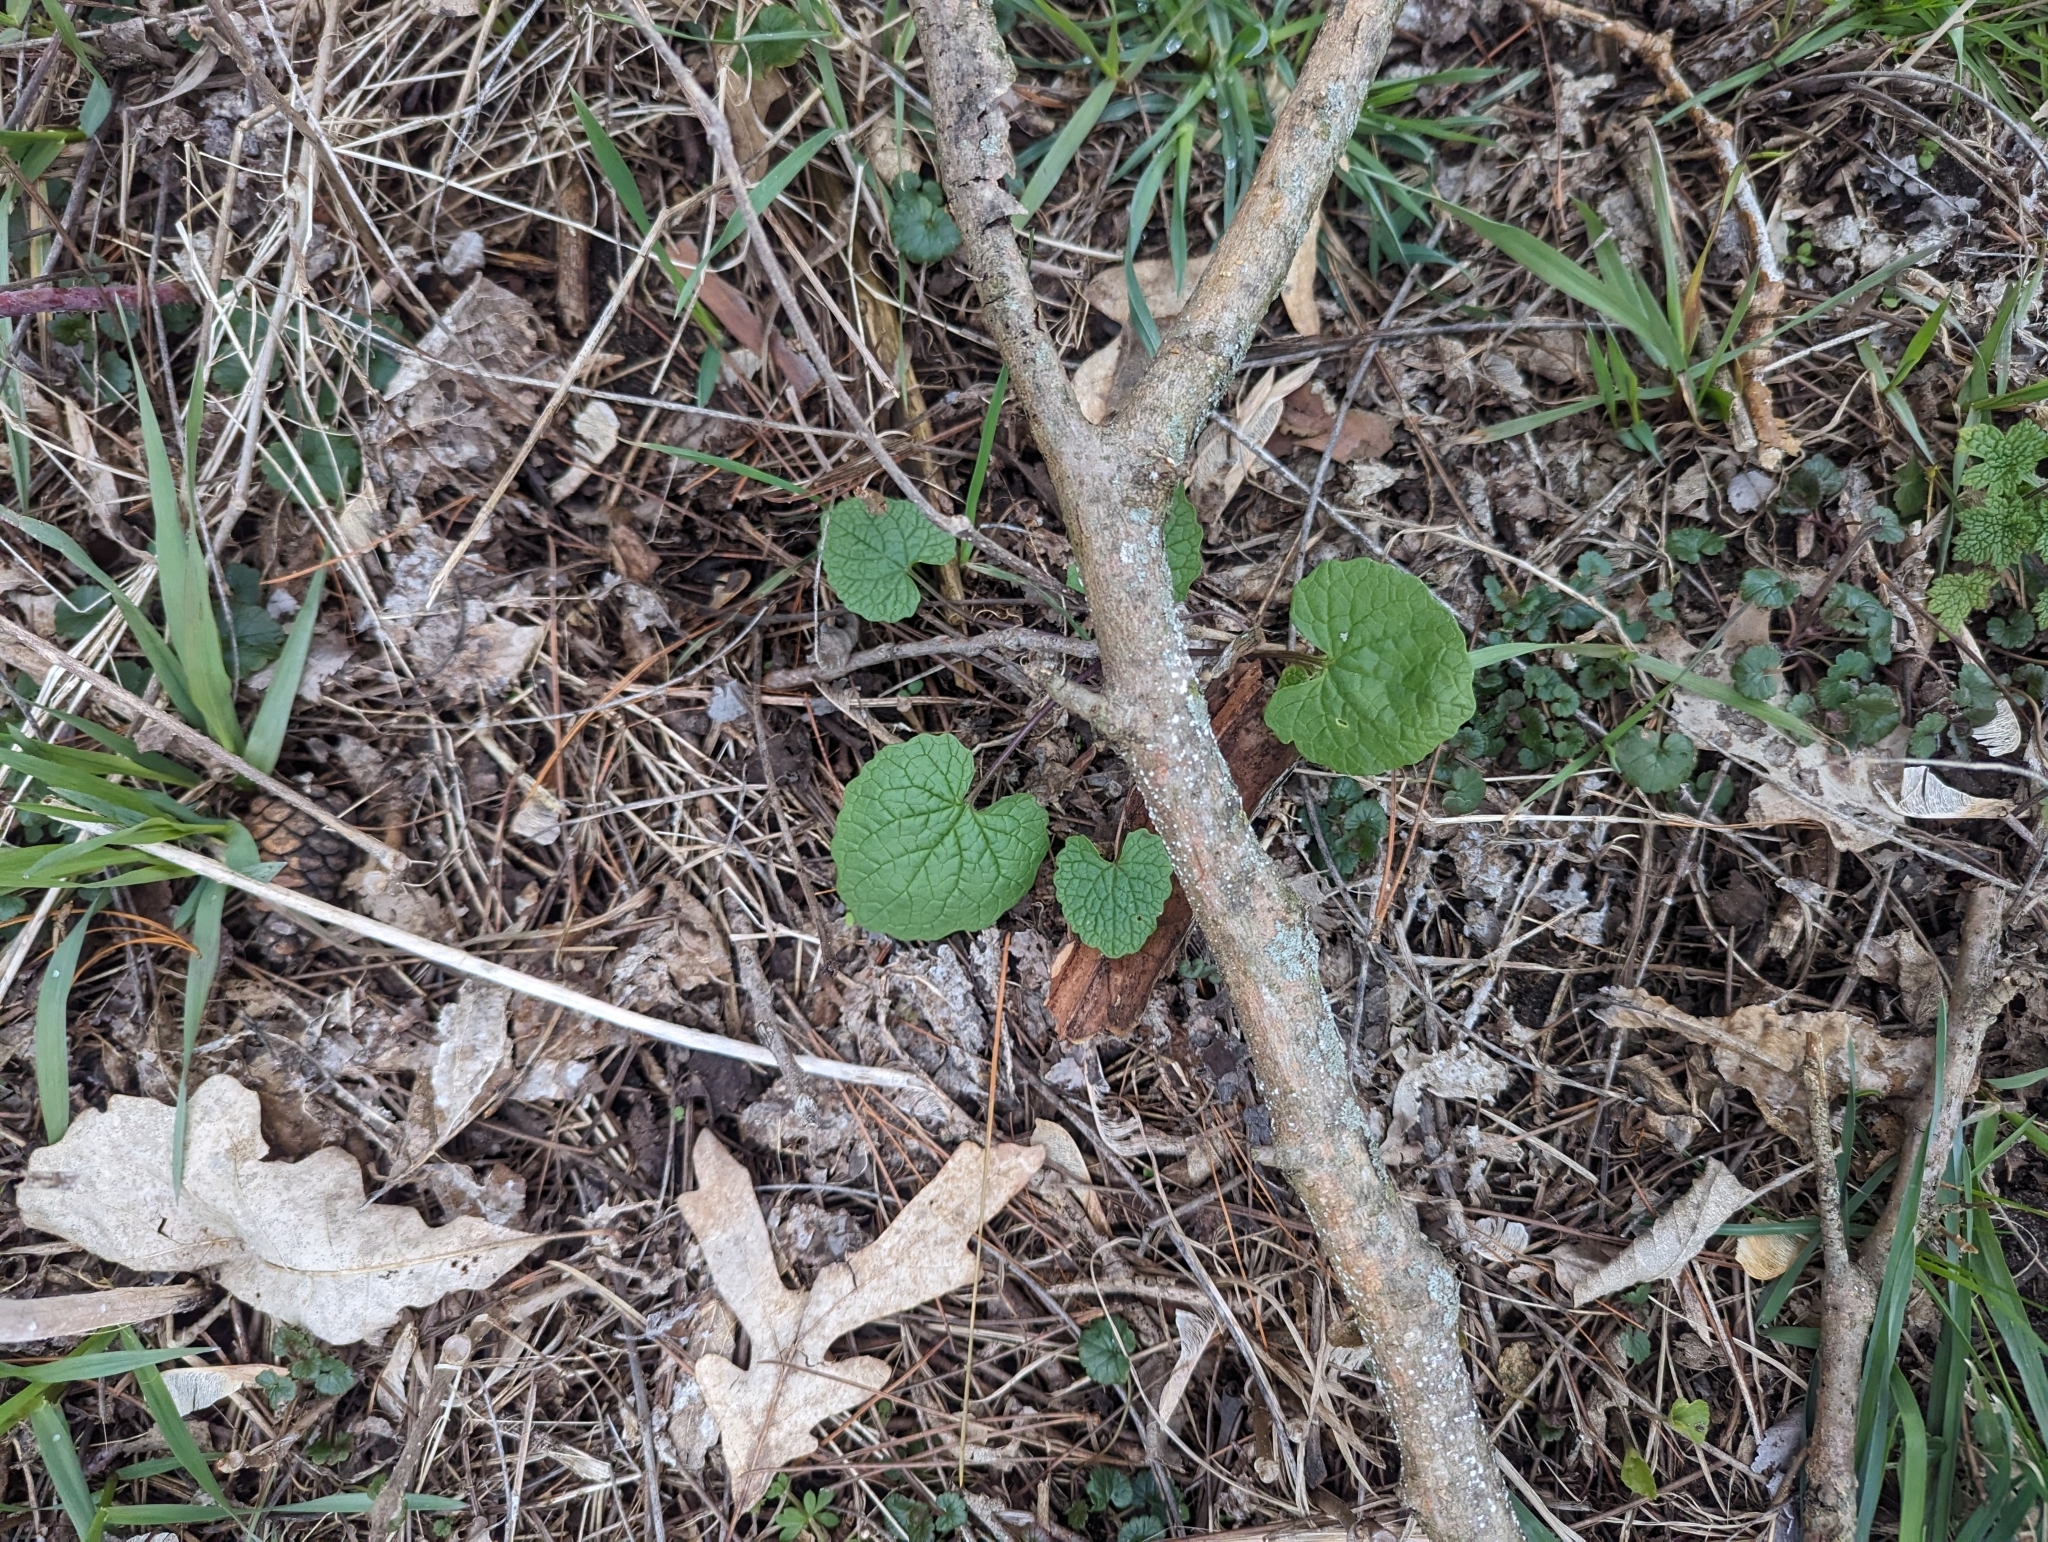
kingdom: Plantae
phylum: Tracheophyta
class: Magnoliopsida
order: Brassicales
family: Brassicaceae
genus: Alliaria
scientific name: Alliaria petiolata
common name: Garlic mustard
